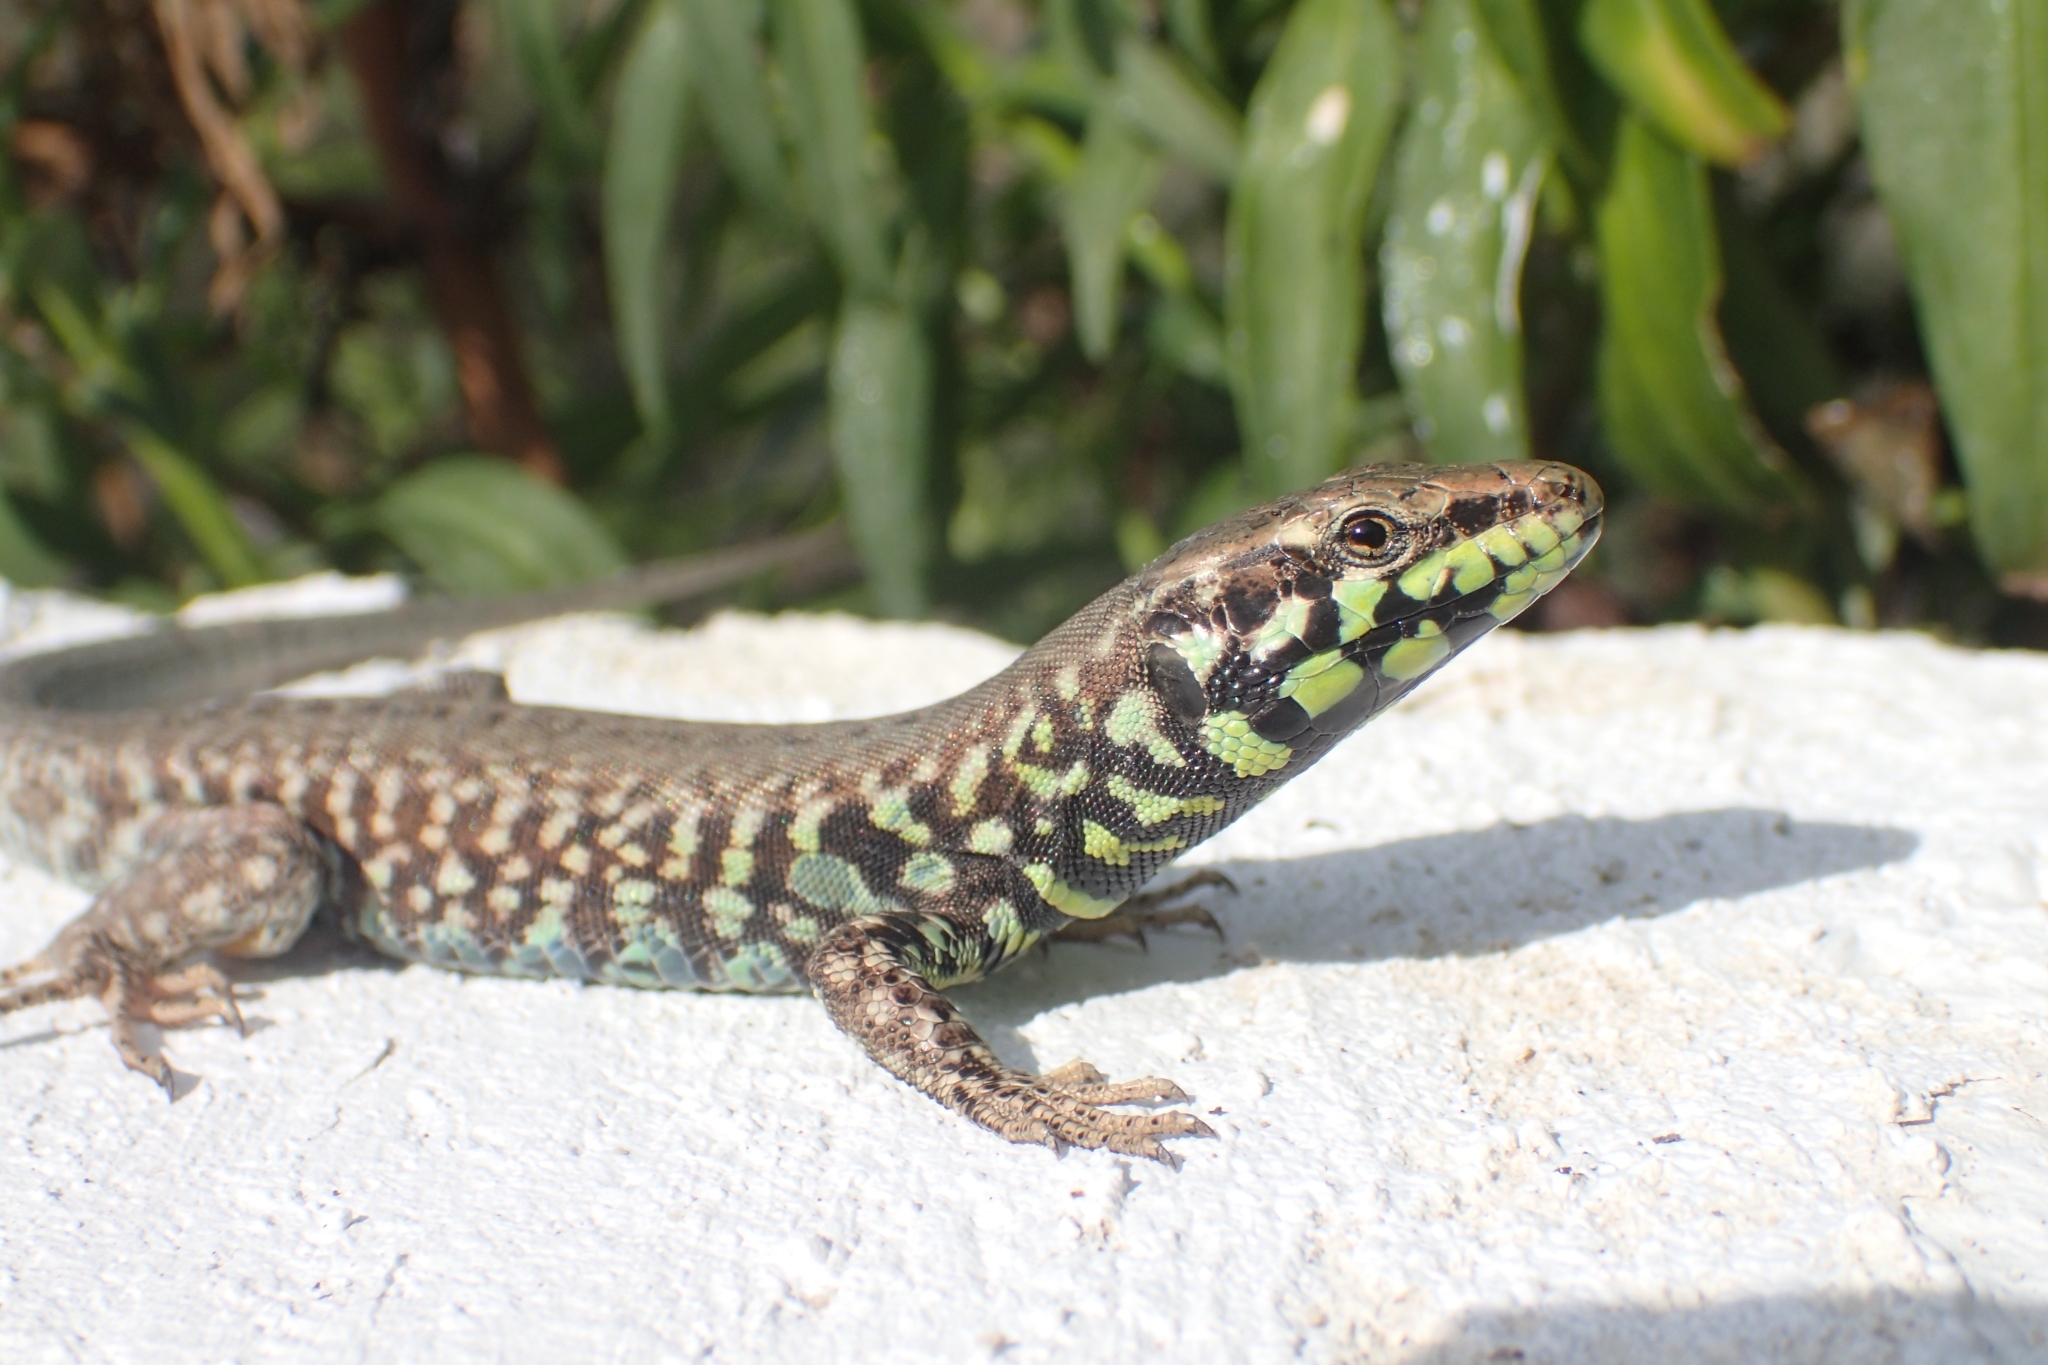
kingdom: Animalia
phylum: Chordata
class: Squamata
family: Lacertidae
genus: Podarcis
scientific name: Podarcis milensis
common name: Milos wall lizard
